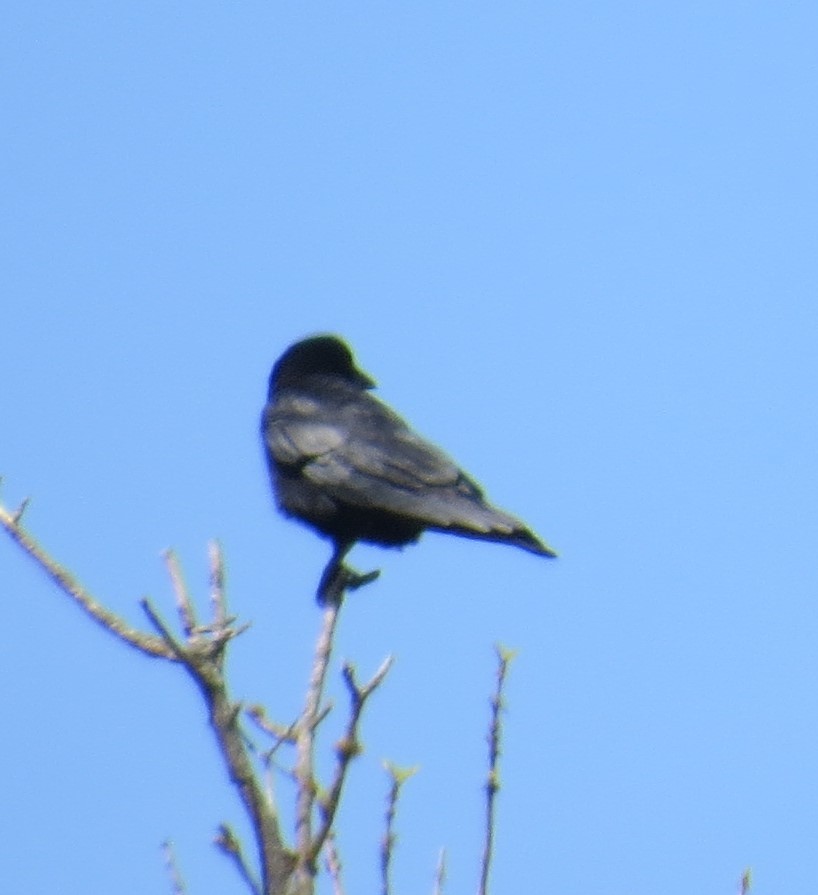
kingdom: Animalia
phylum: Chordata
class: Aves
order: Passeriformes
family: Corvidae
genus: Corvus
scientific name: Corvus brachyrhynchos
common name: American crow
